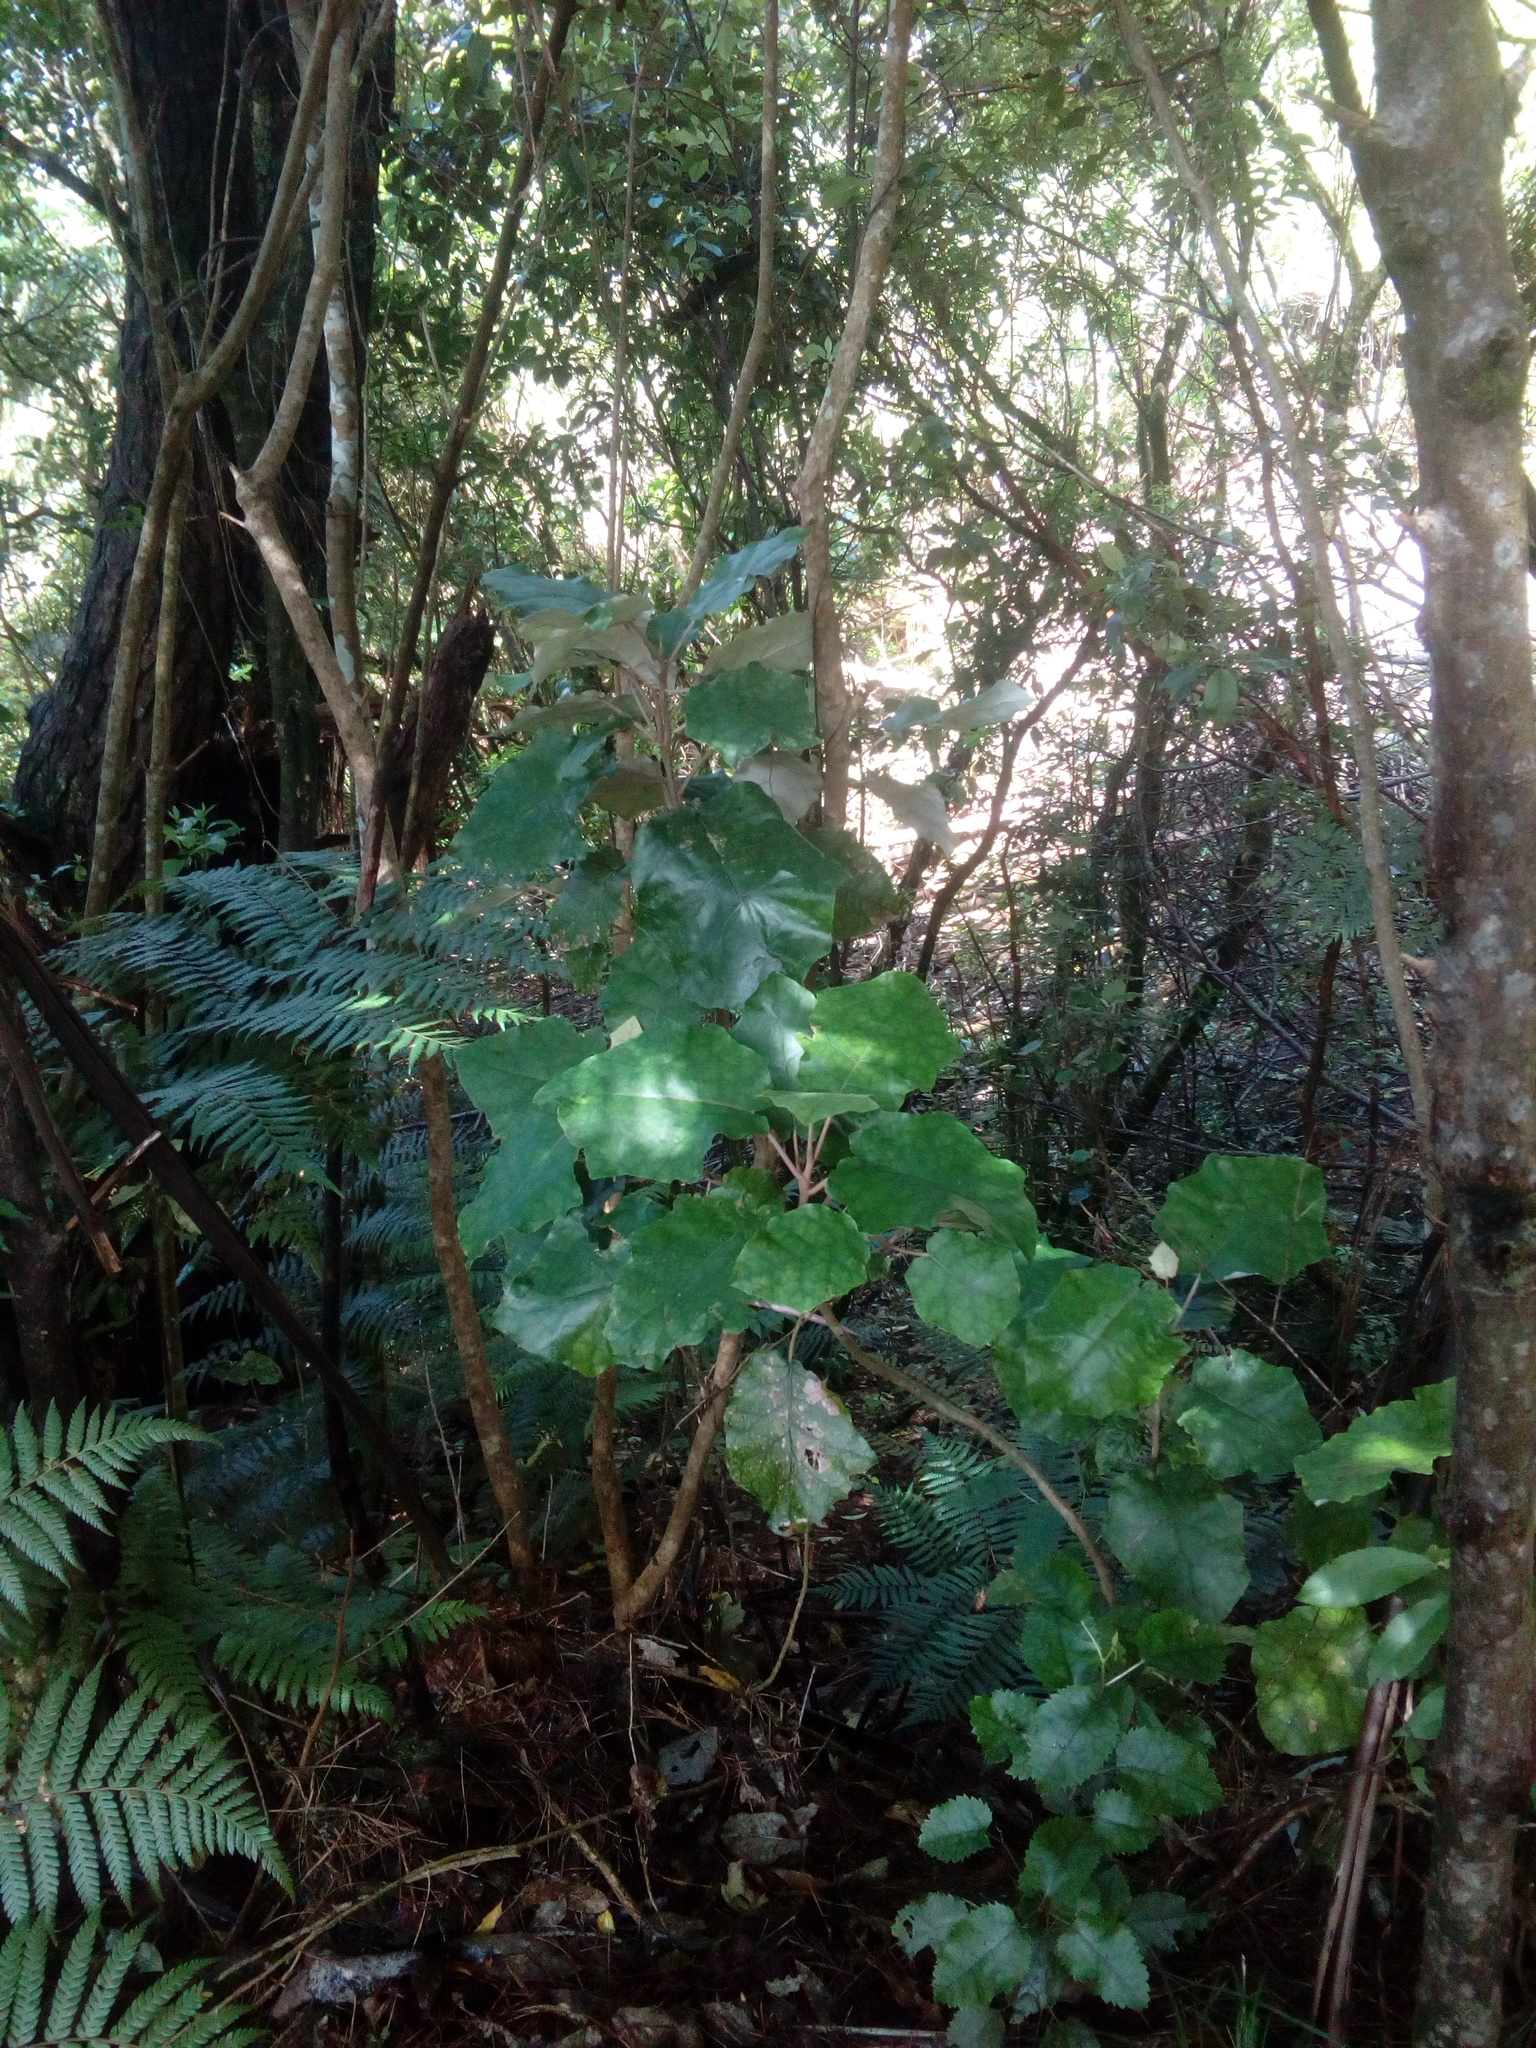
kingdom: Plantae
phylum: Tracheophyta
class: Magnoliopsida
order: Asterales
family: Asteraceae
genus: Brachyglottis
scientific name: Brachyglottis repanda
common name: Hedge ragwort
